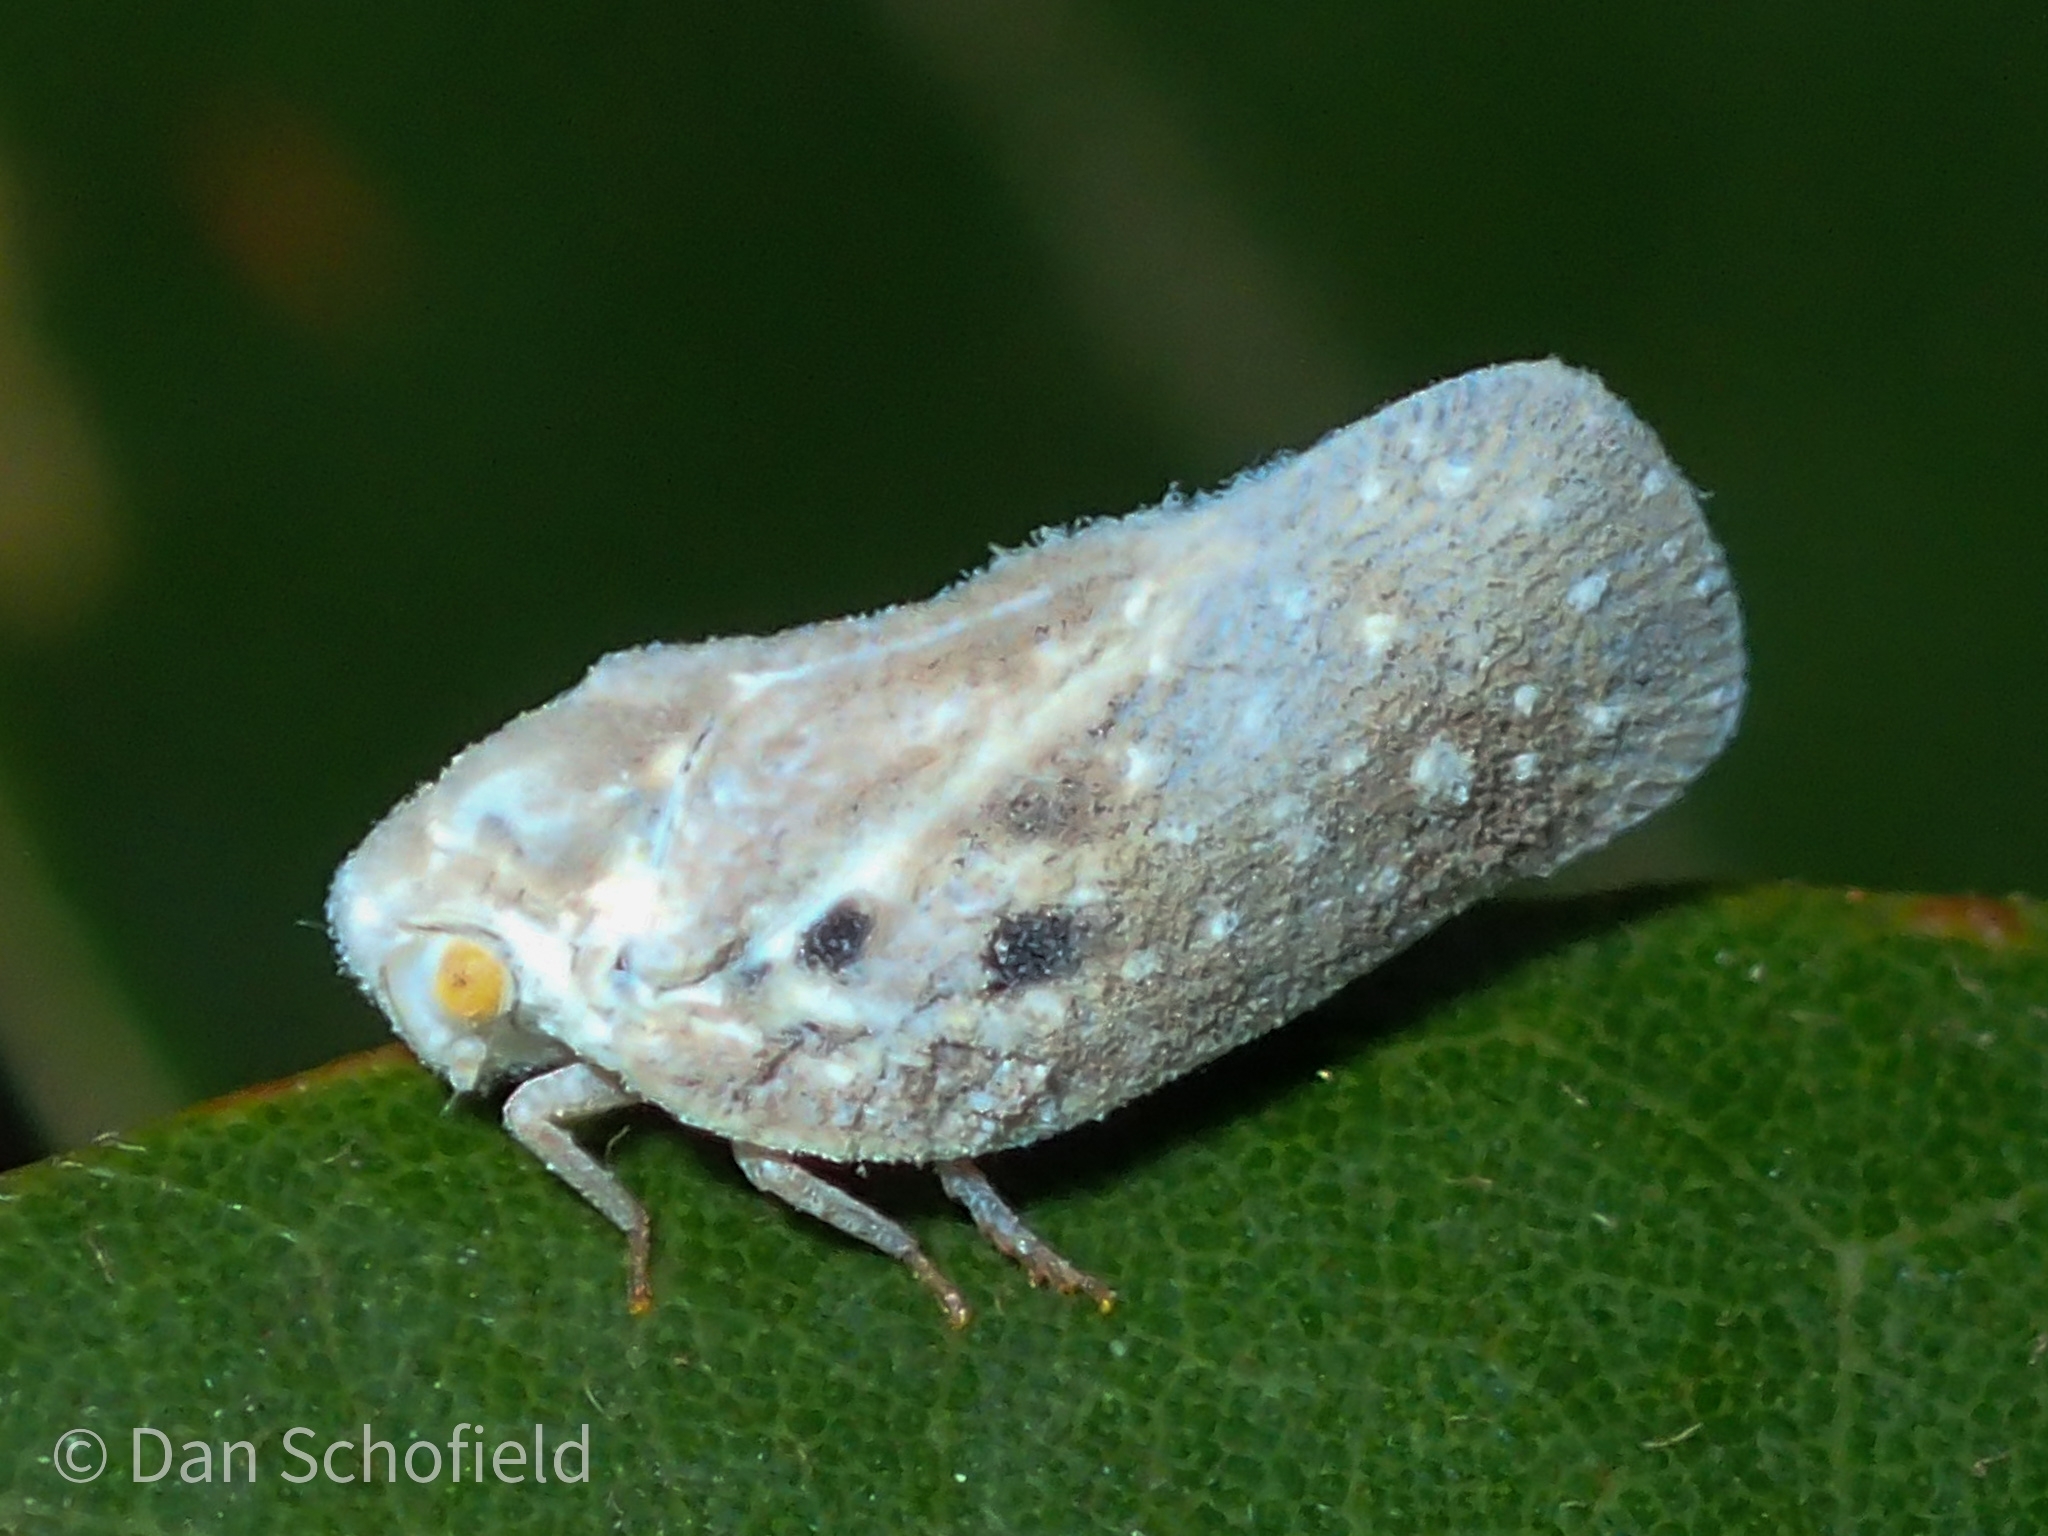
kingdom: Animalia
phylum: Arthropoda
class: Insecta
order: Hemiptera
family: Flatidae
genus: Metcalfa
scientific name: Metcalfa pruinosa
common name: Citrus flatid planthopper
